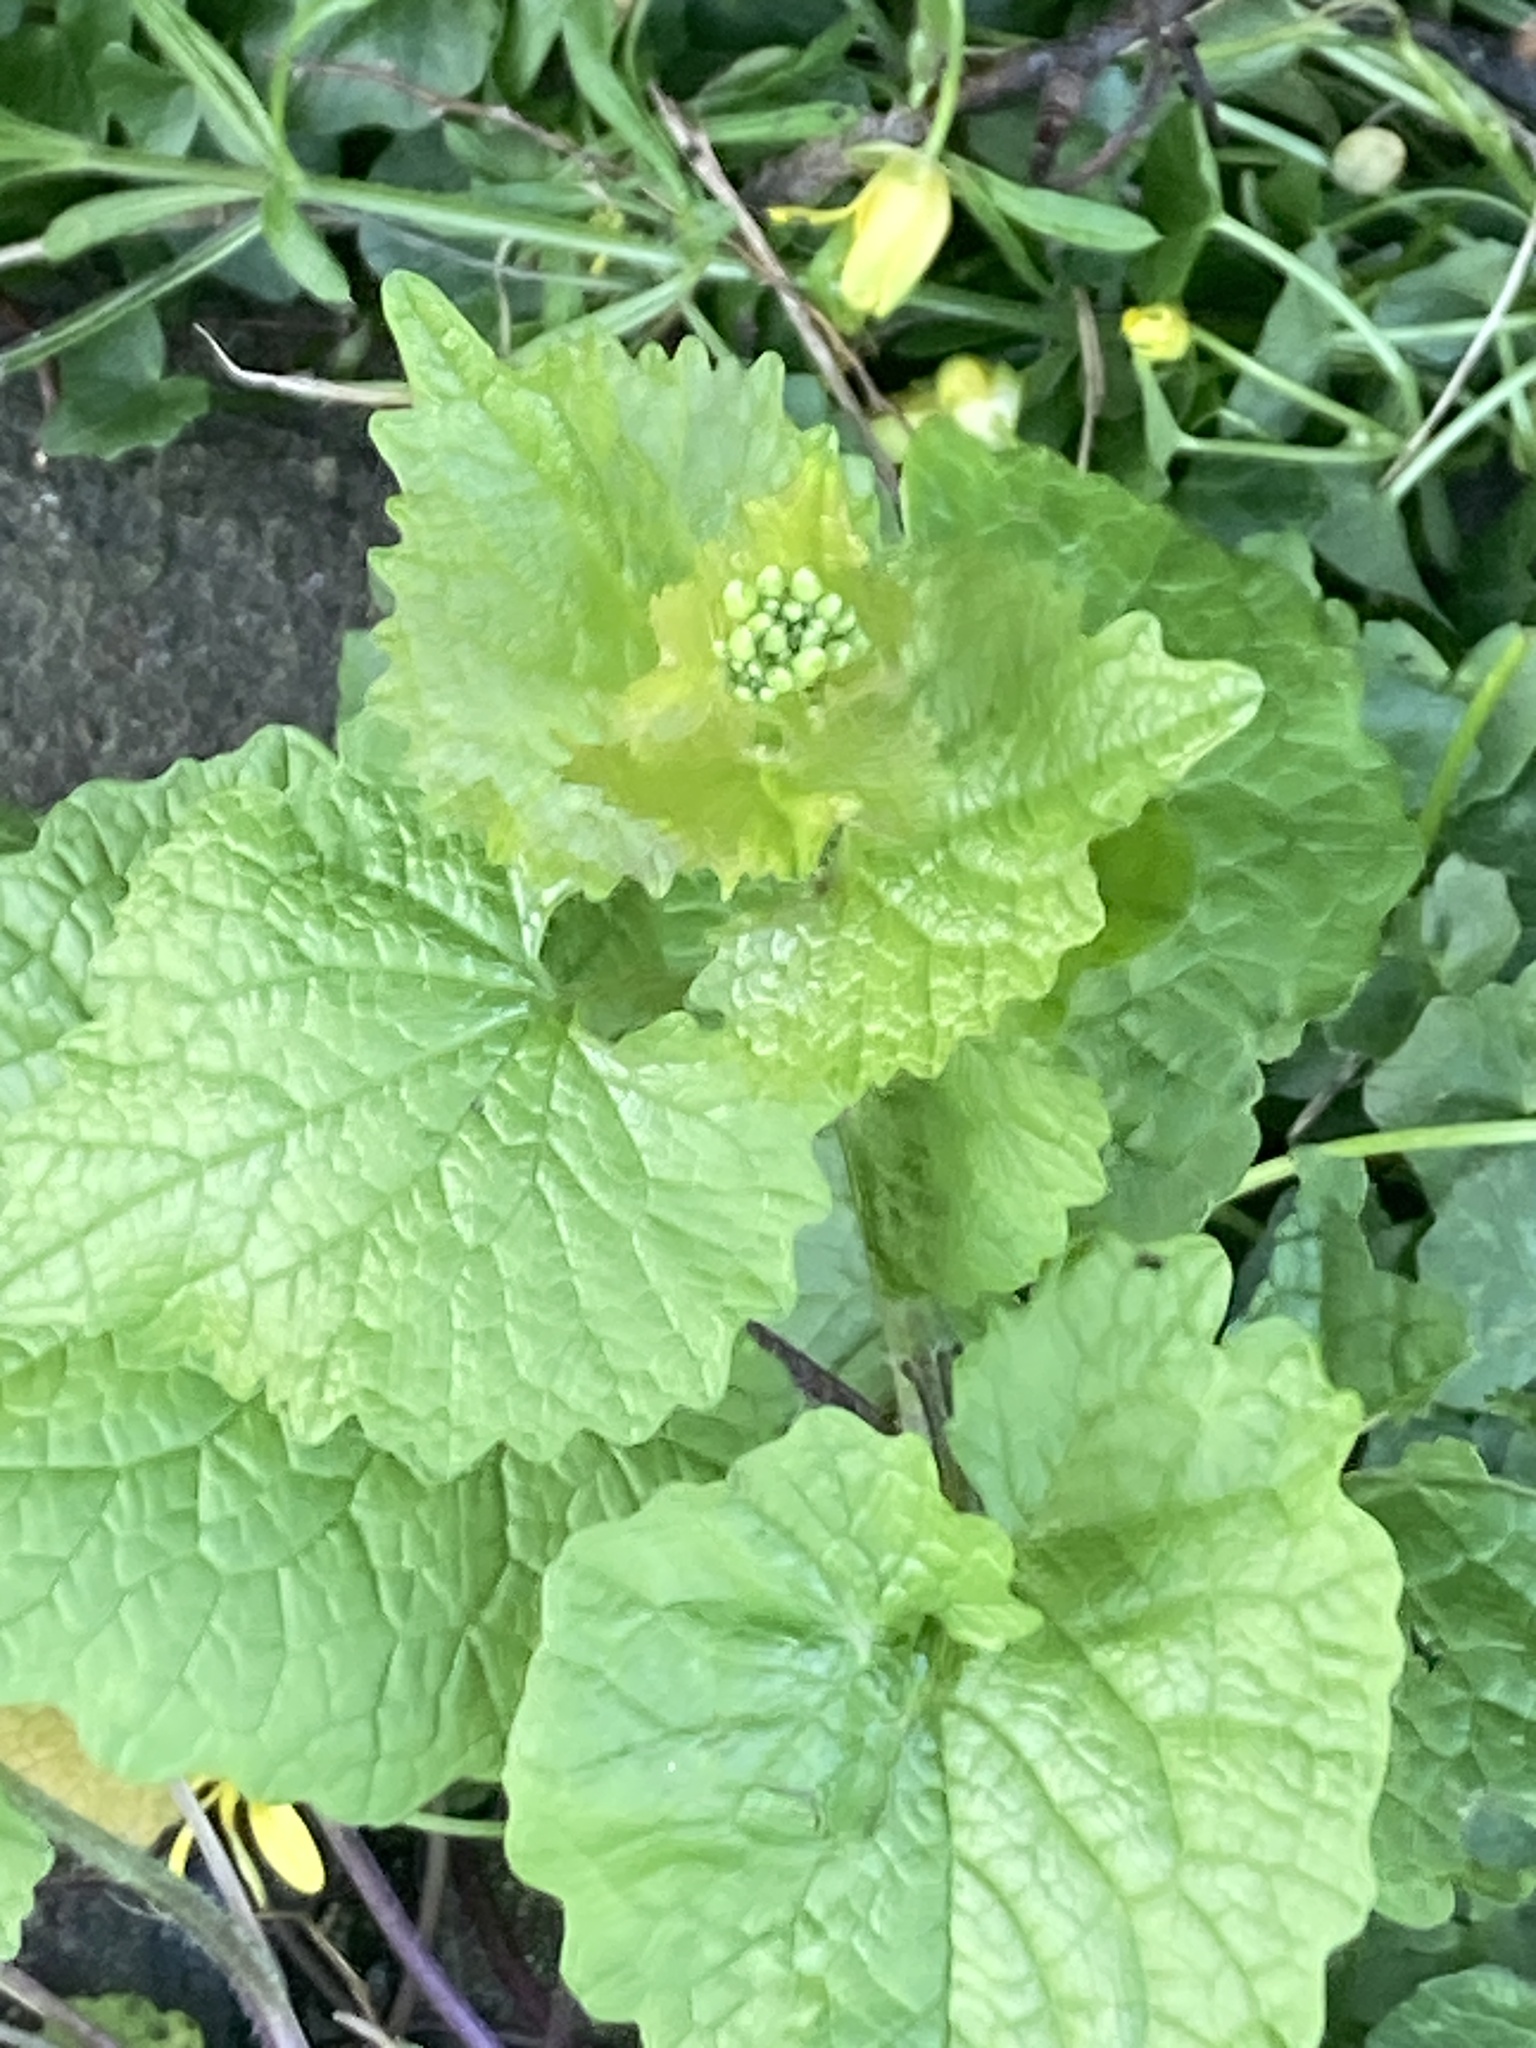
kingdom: Plantae
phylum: Tracheophyta
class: Magnoliopsida
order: Brassicales
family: Brassicaceae
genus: Alliaria
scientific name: Alliaria petiolata
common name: Garlic mustard
